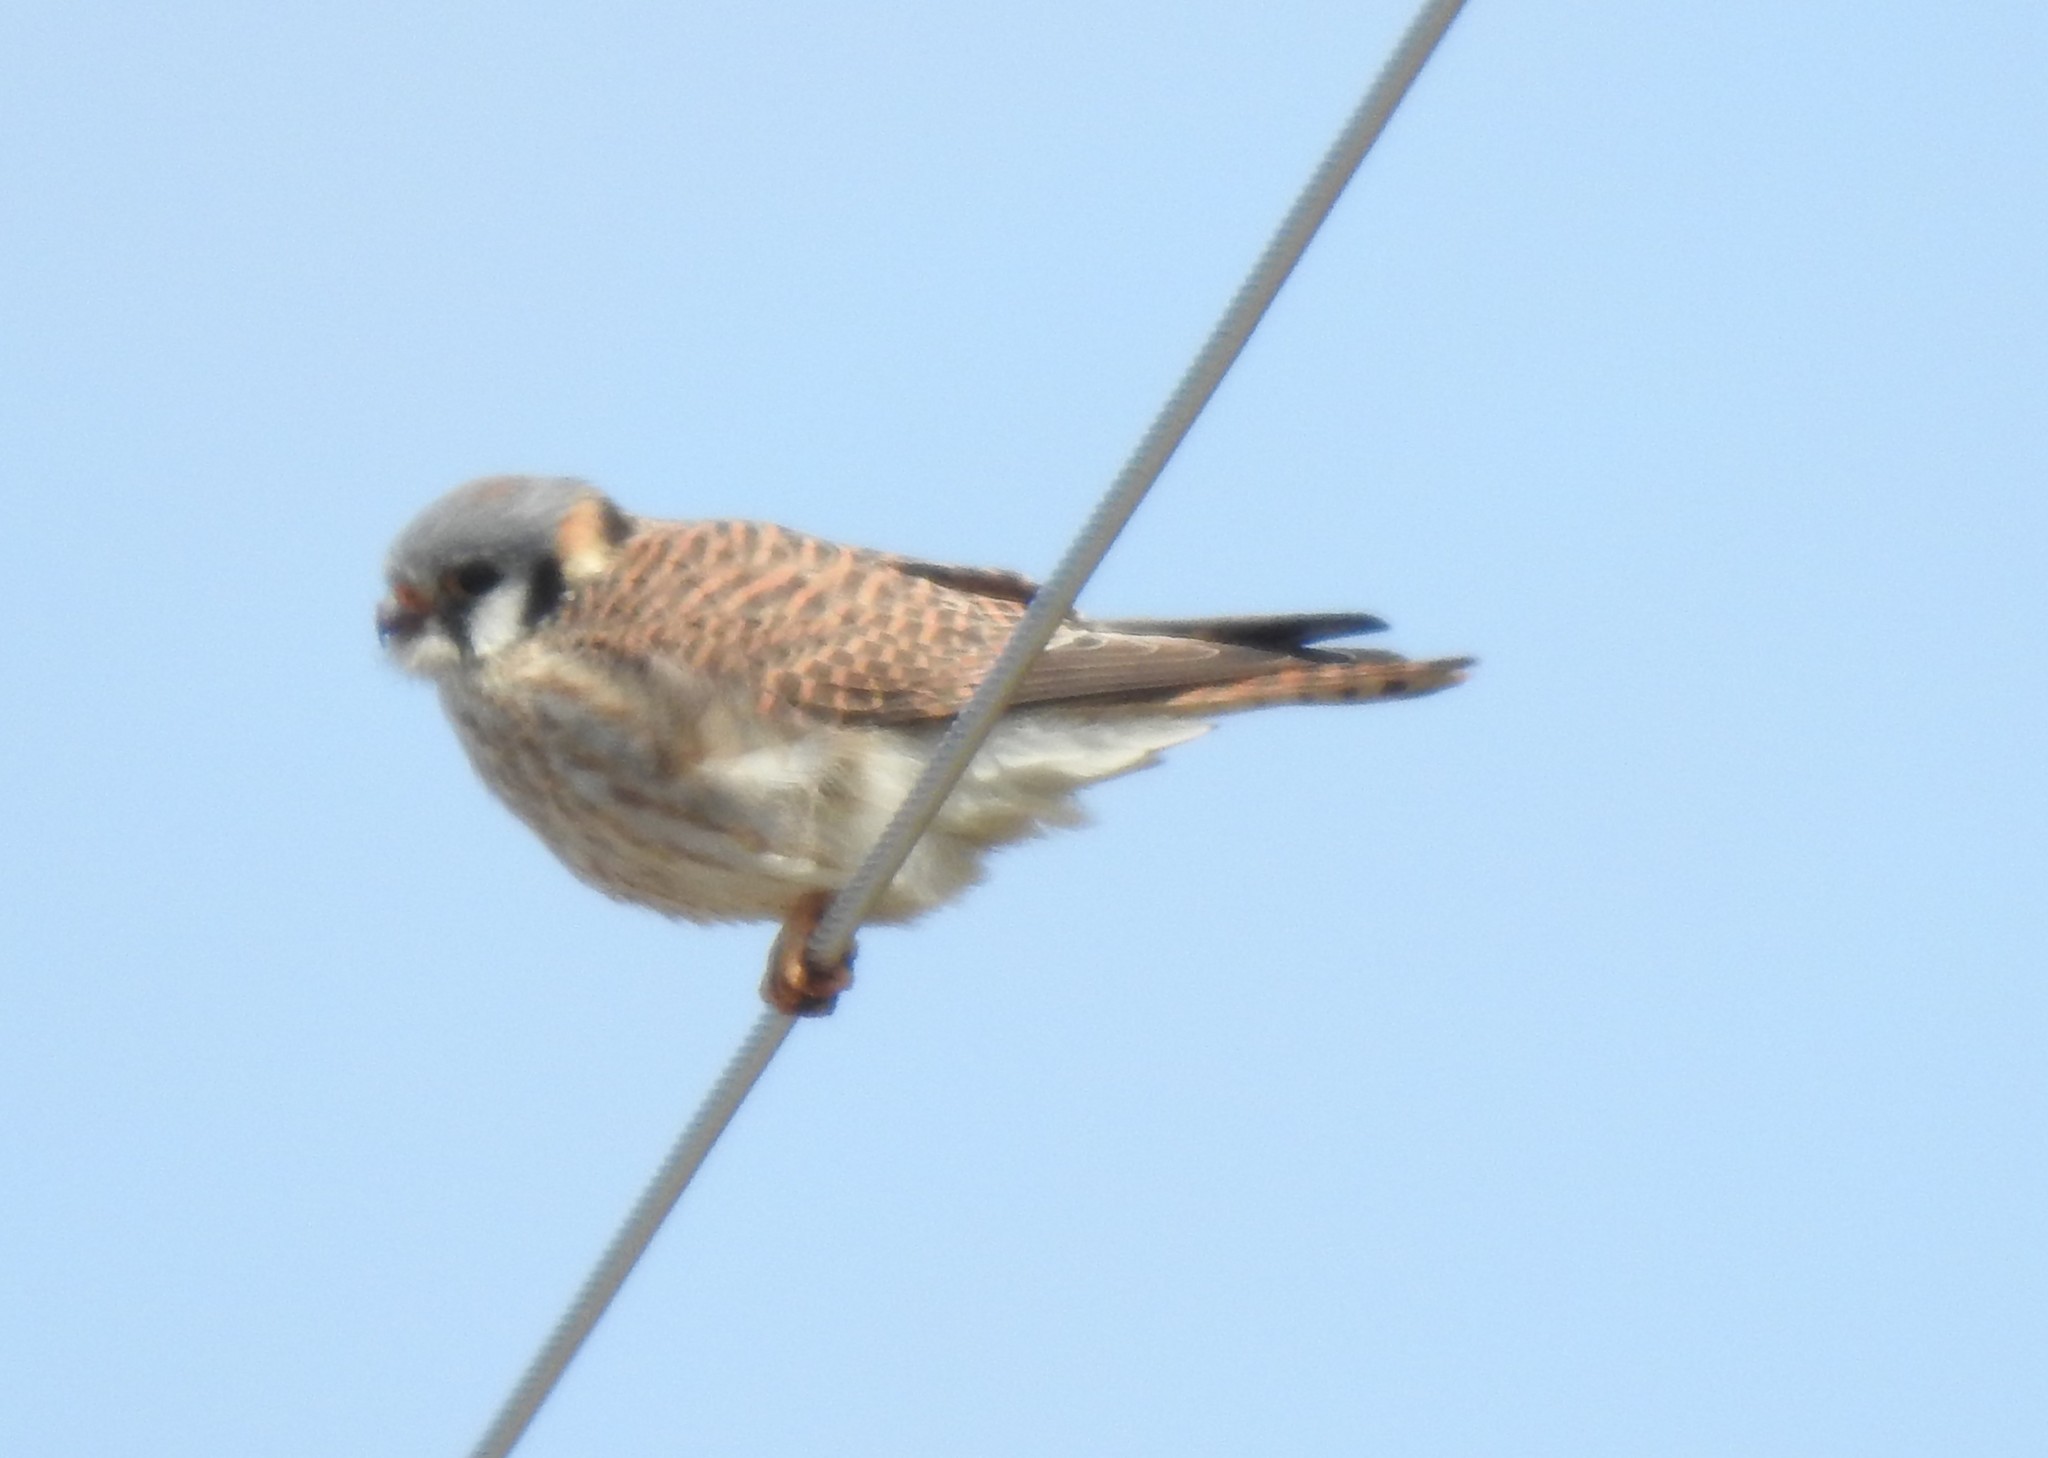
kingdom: Animalia
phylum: Chordata
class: Aves
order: Falconiformes
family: Falconidae
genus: Falco
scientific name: Falco sparverius
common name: American kestrel
